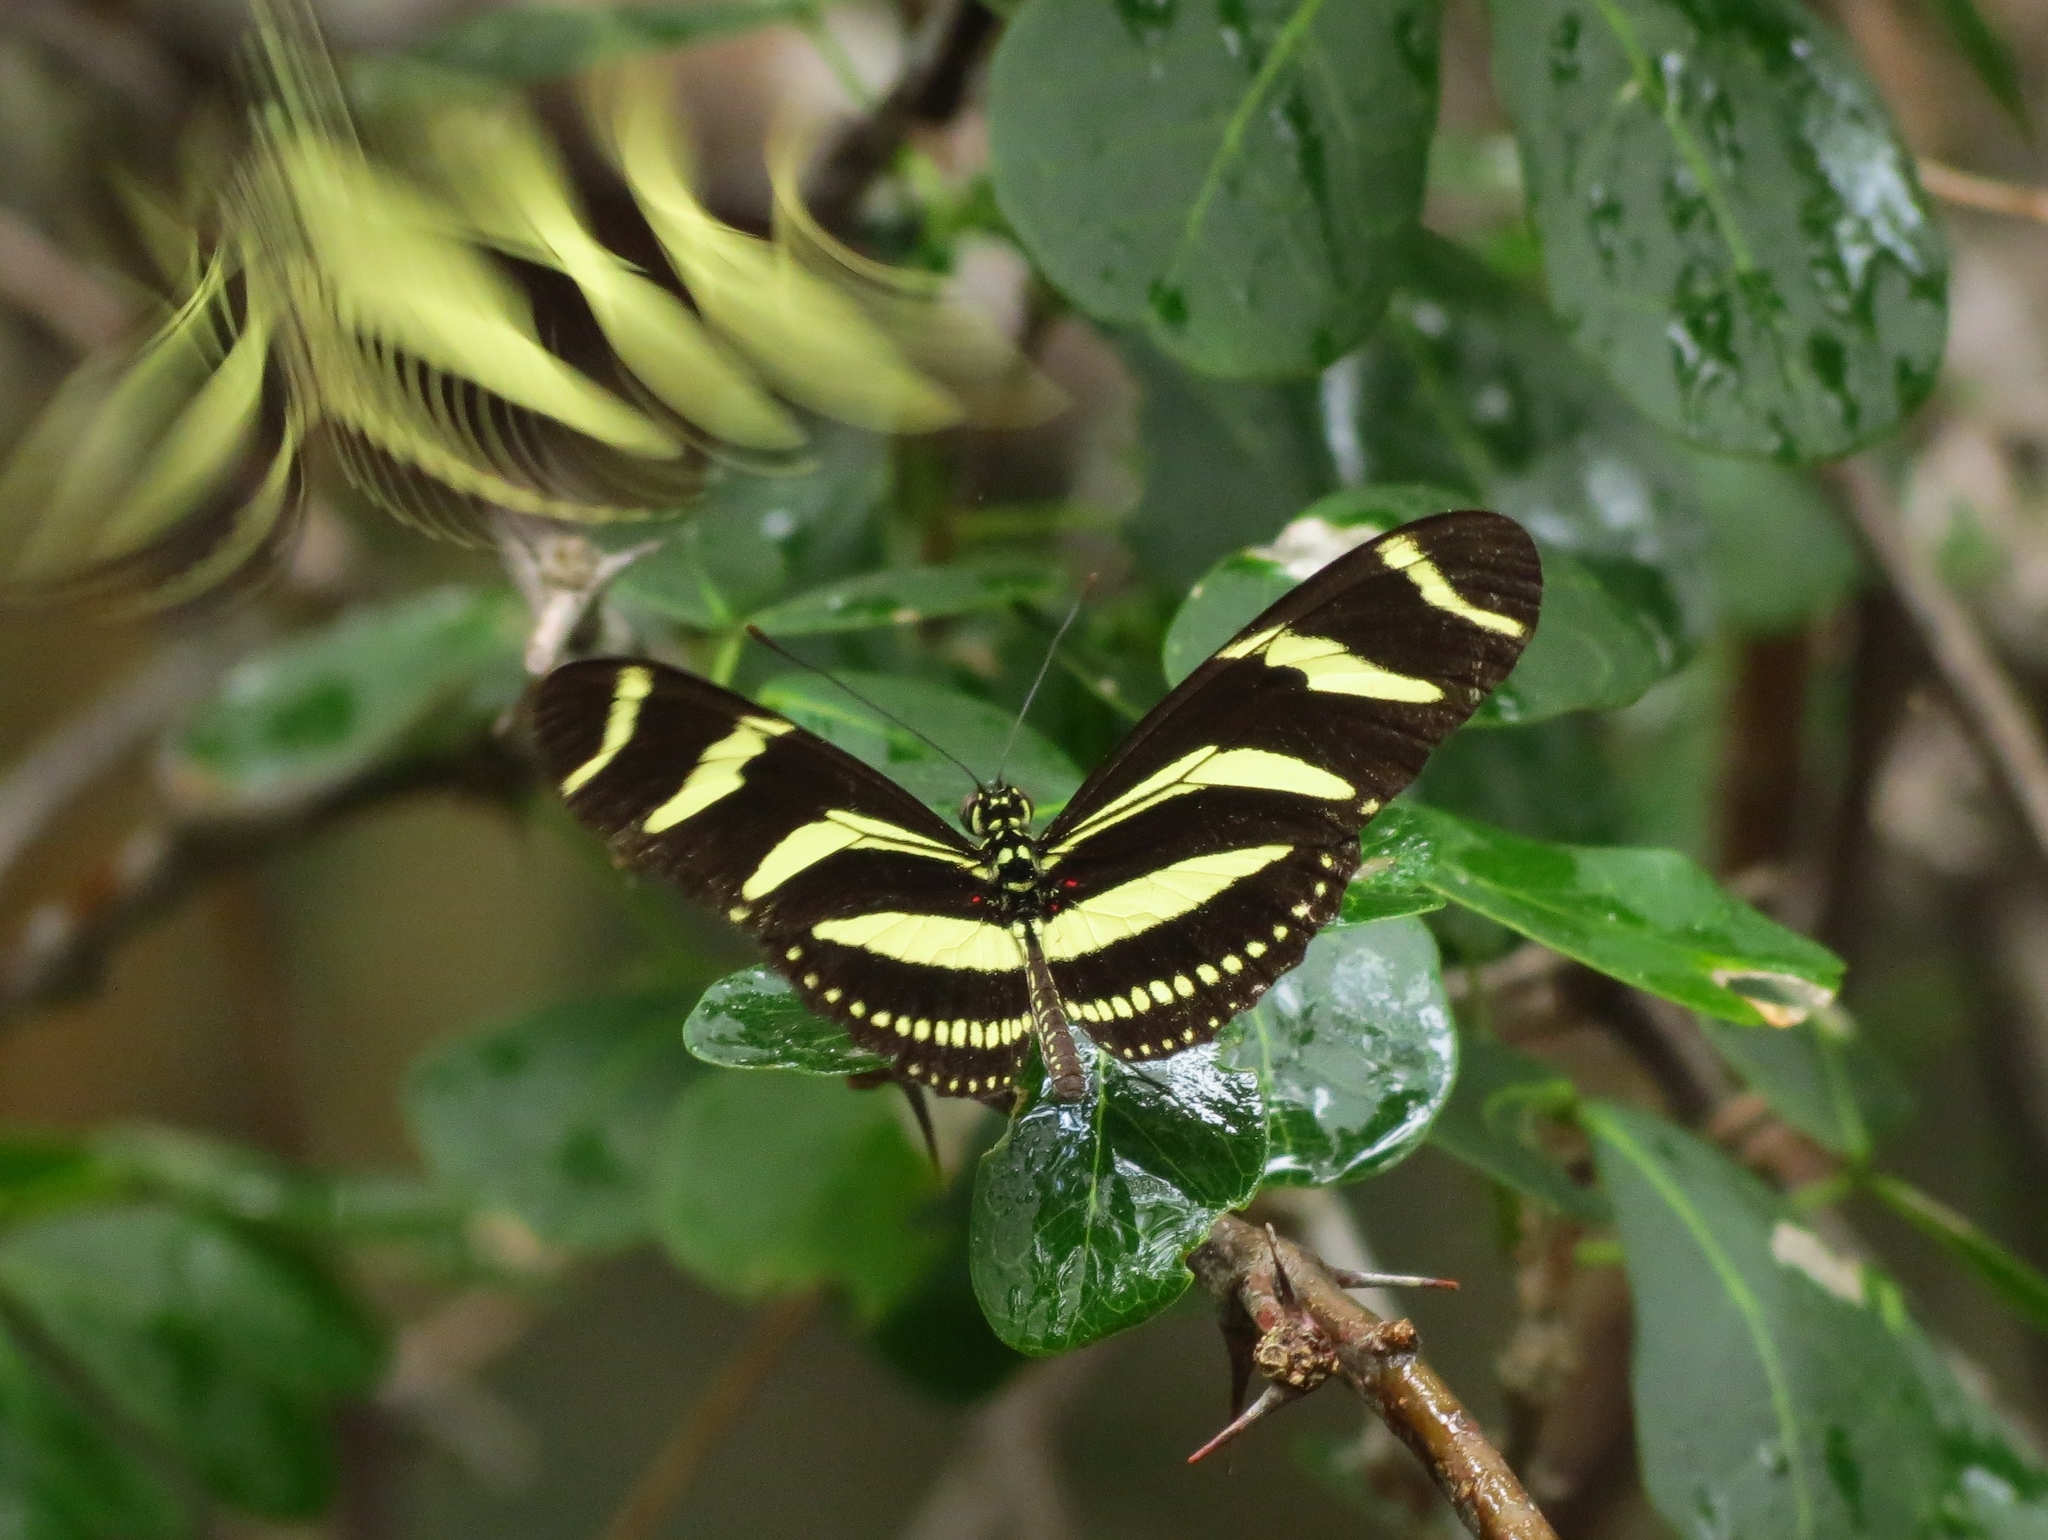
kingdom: Animalia
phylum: Arthropoda
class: Insecta
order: Lepidoptera
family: Nymphalidae
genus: Heliconius
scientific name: Heliconius charithonia
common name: Zebra long wing
